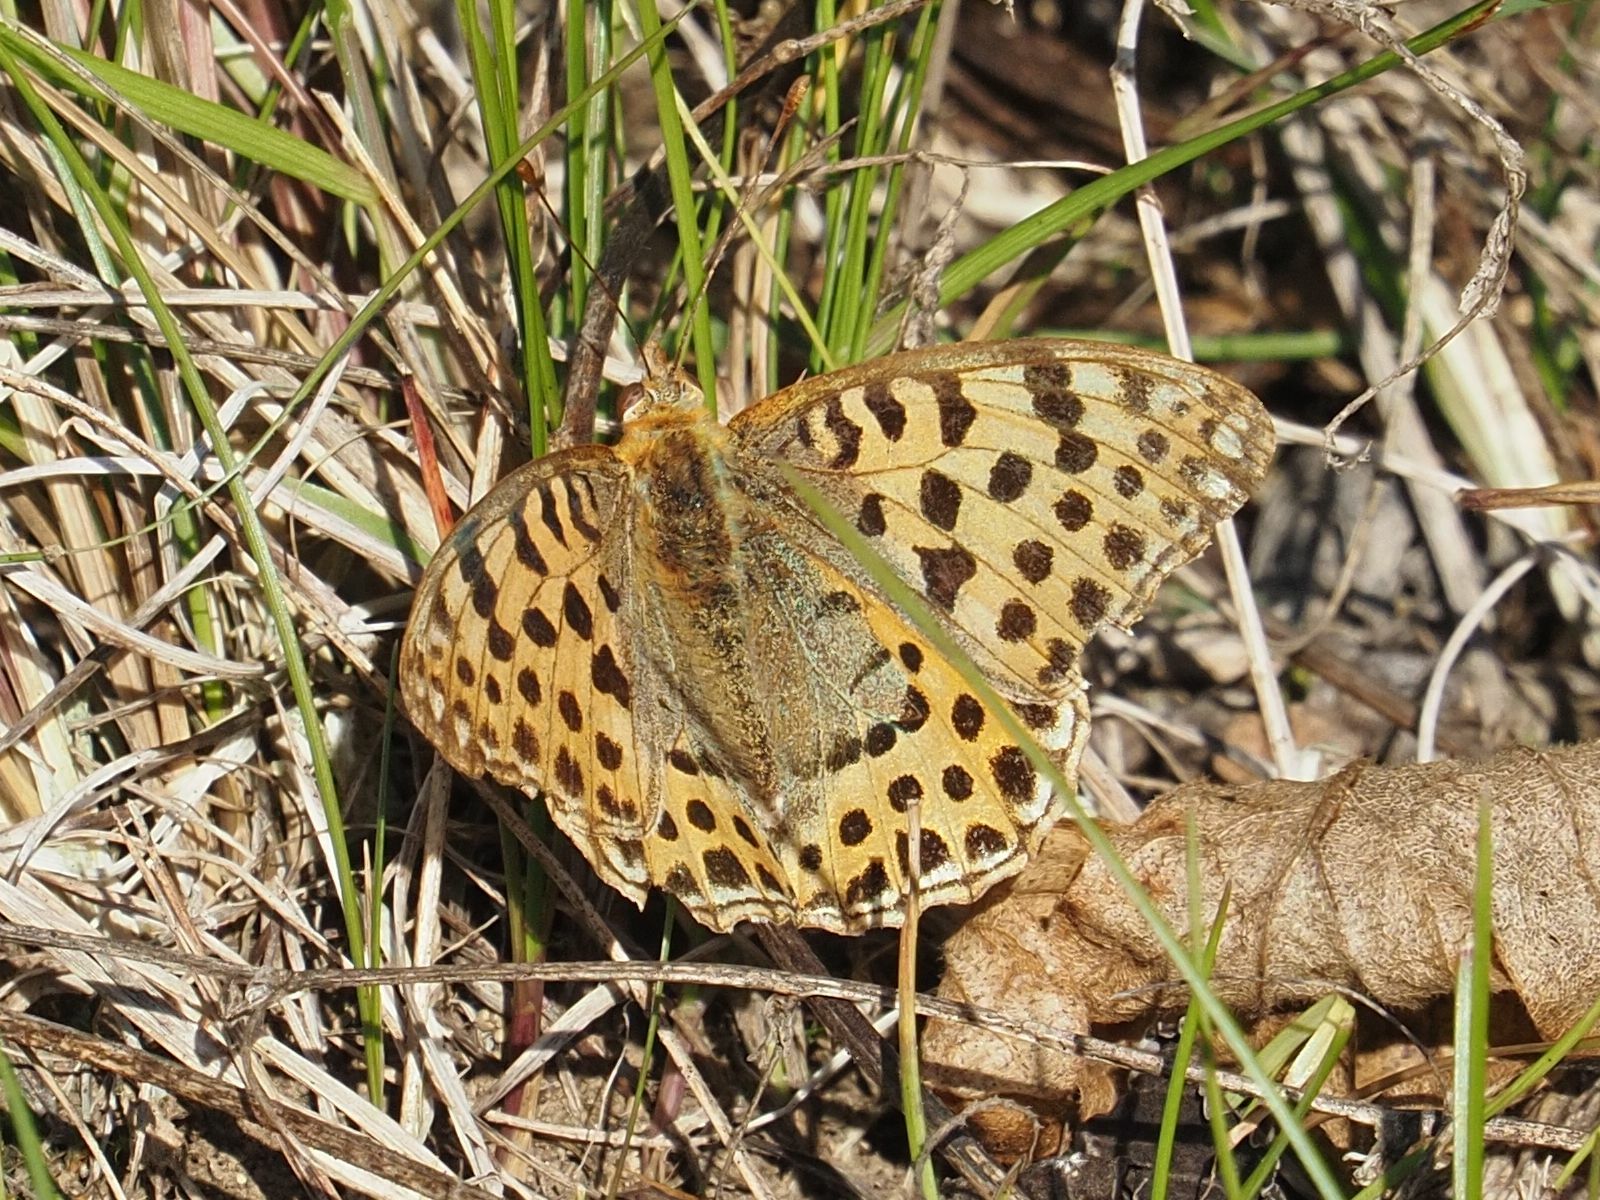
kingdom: Animalia
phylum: Arthropoda
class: Insecta
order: Lepidoptera
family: Nymphalidae
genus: Issoria
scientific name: Issoria lathonia
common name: Queen of spain fritillary
